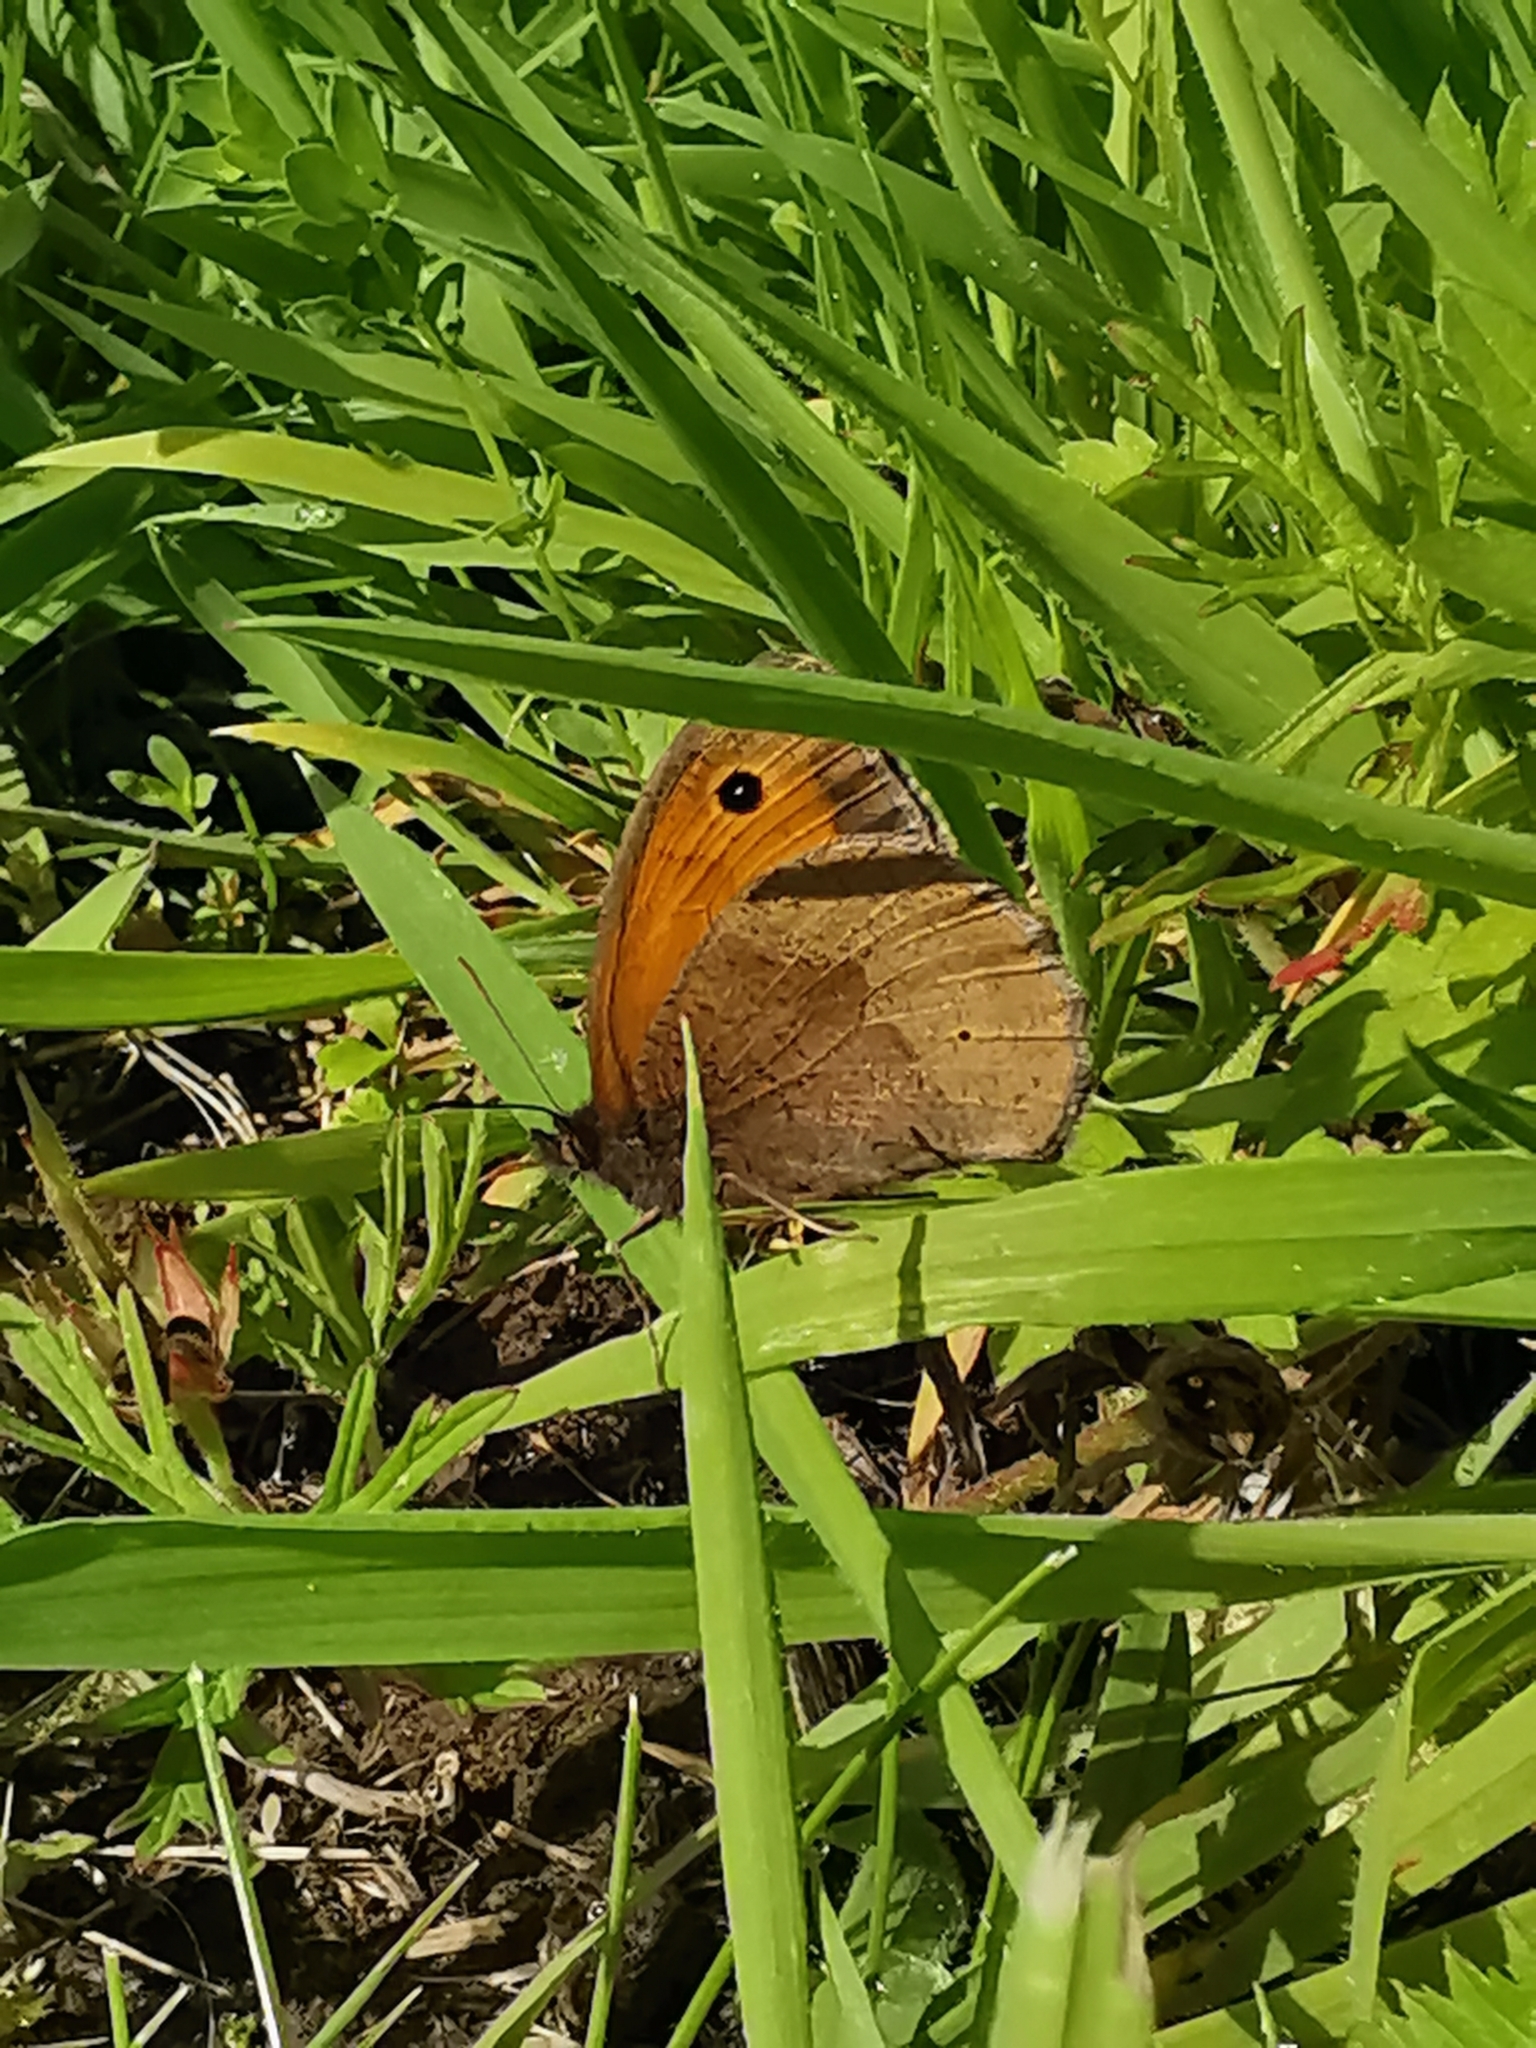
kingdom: Animalia
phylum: Arthropoda
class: Insecta
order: Lepidoptera
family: Nymphalidae
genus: Maniola
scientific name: Maniola jurtina
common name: Meadow brown
